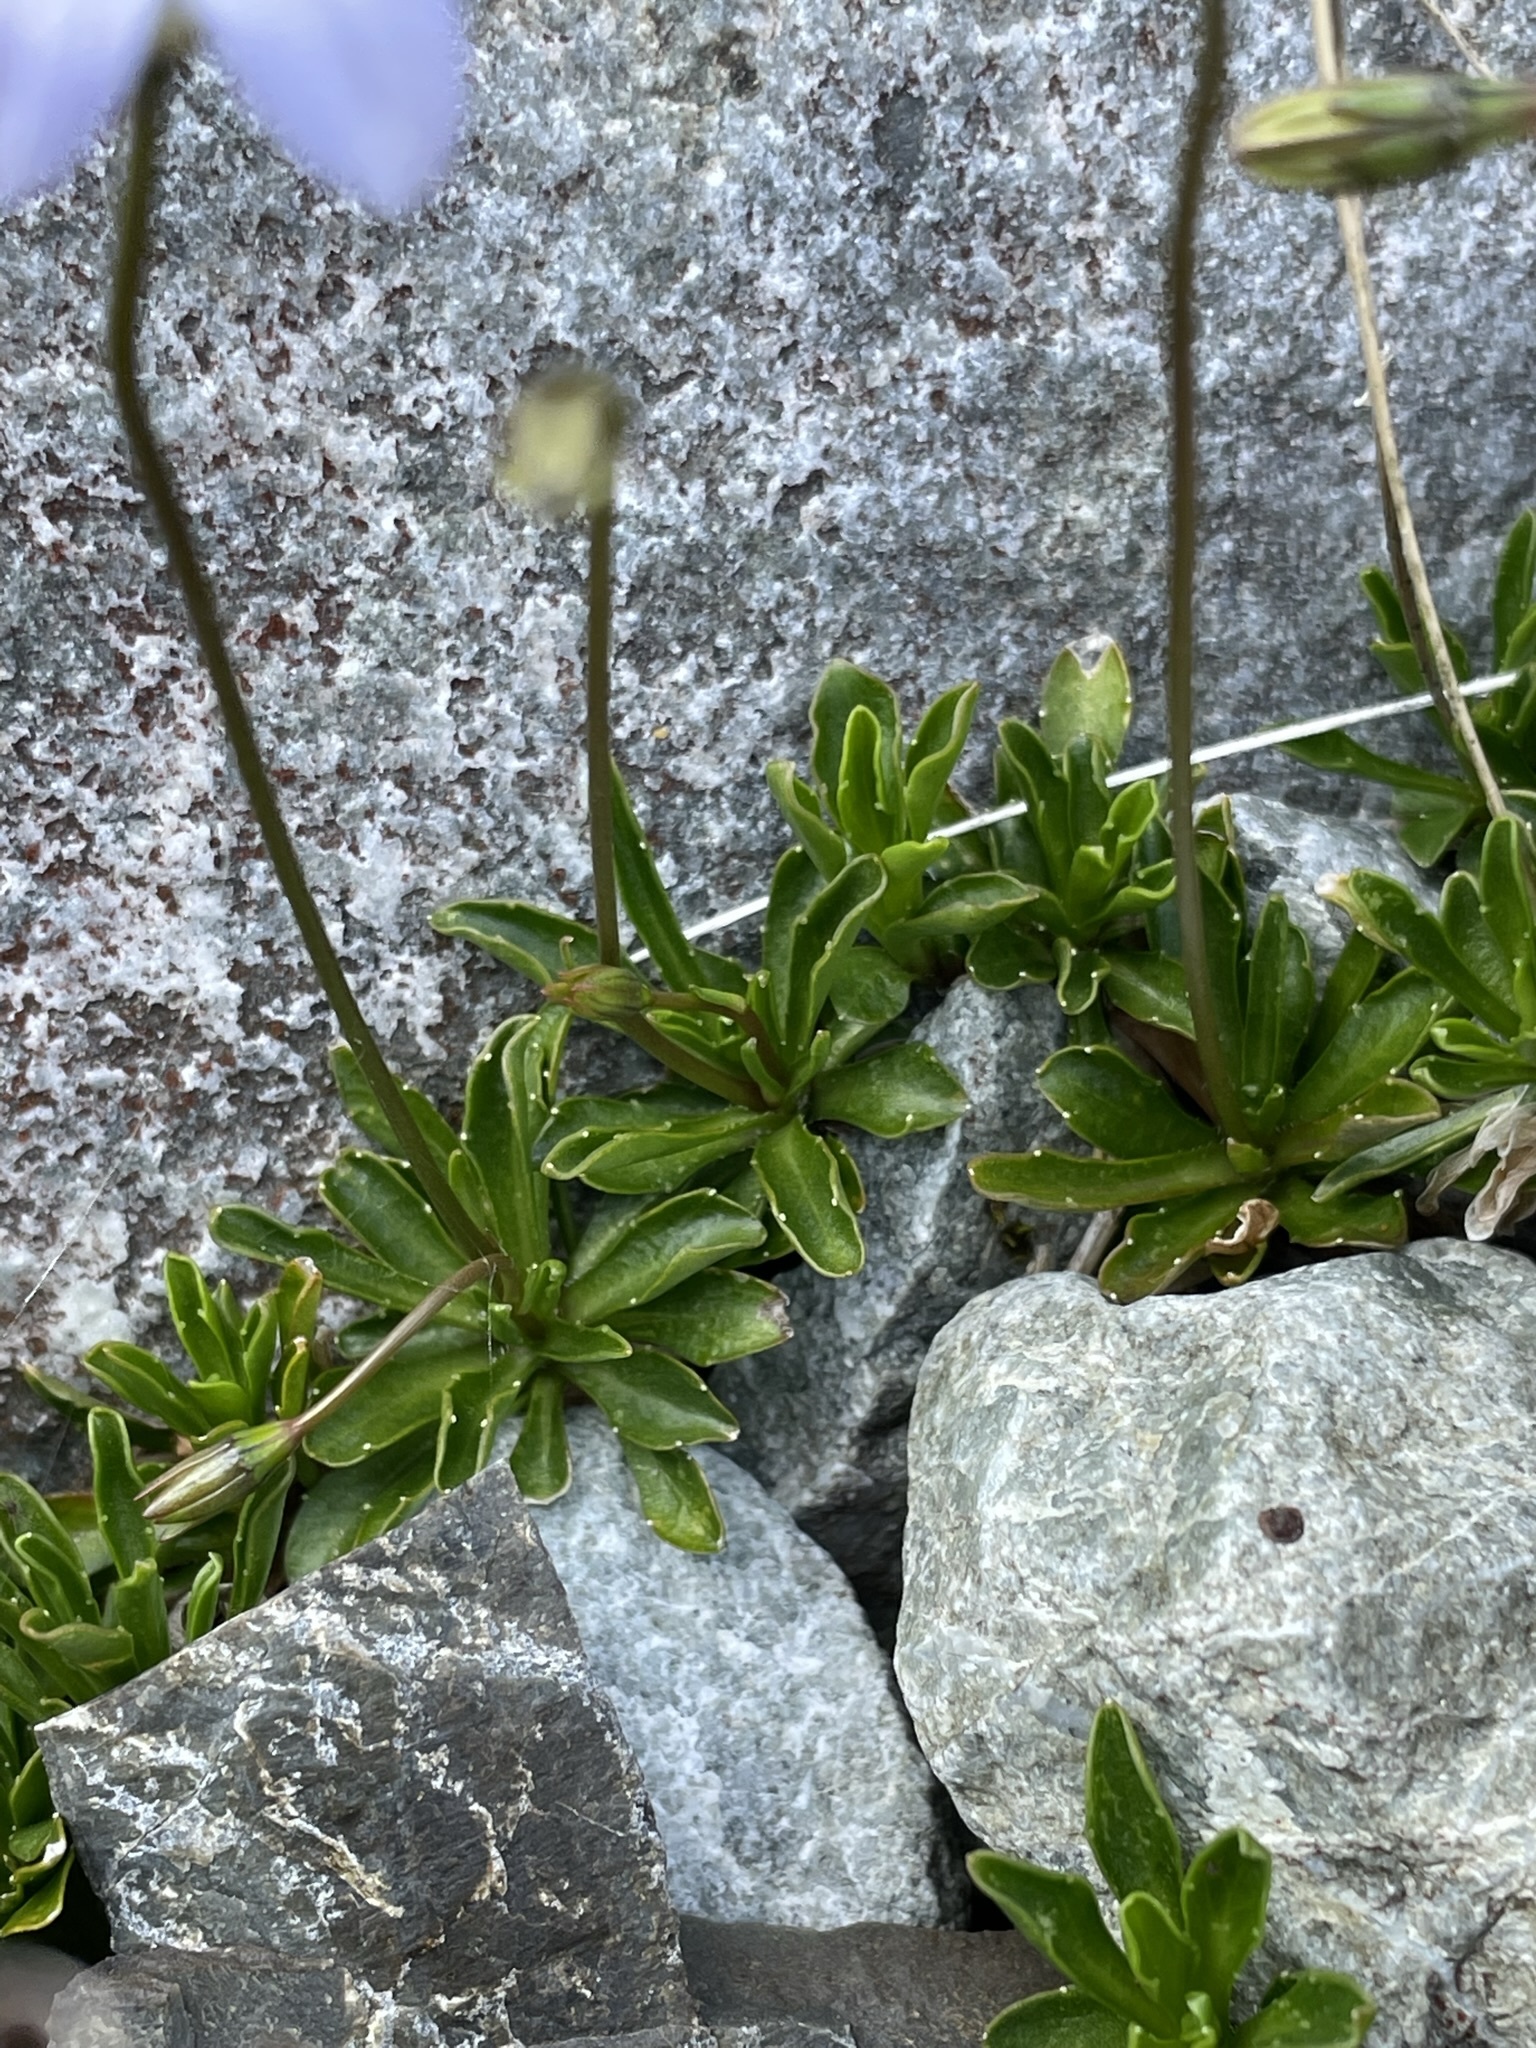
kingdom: Plantae
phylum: Tracheophyta
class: Magnoliopsida
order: Asterales
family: Campanulaceae
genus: Wahlenbergia
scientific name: Wahlenbergia albomarginata
